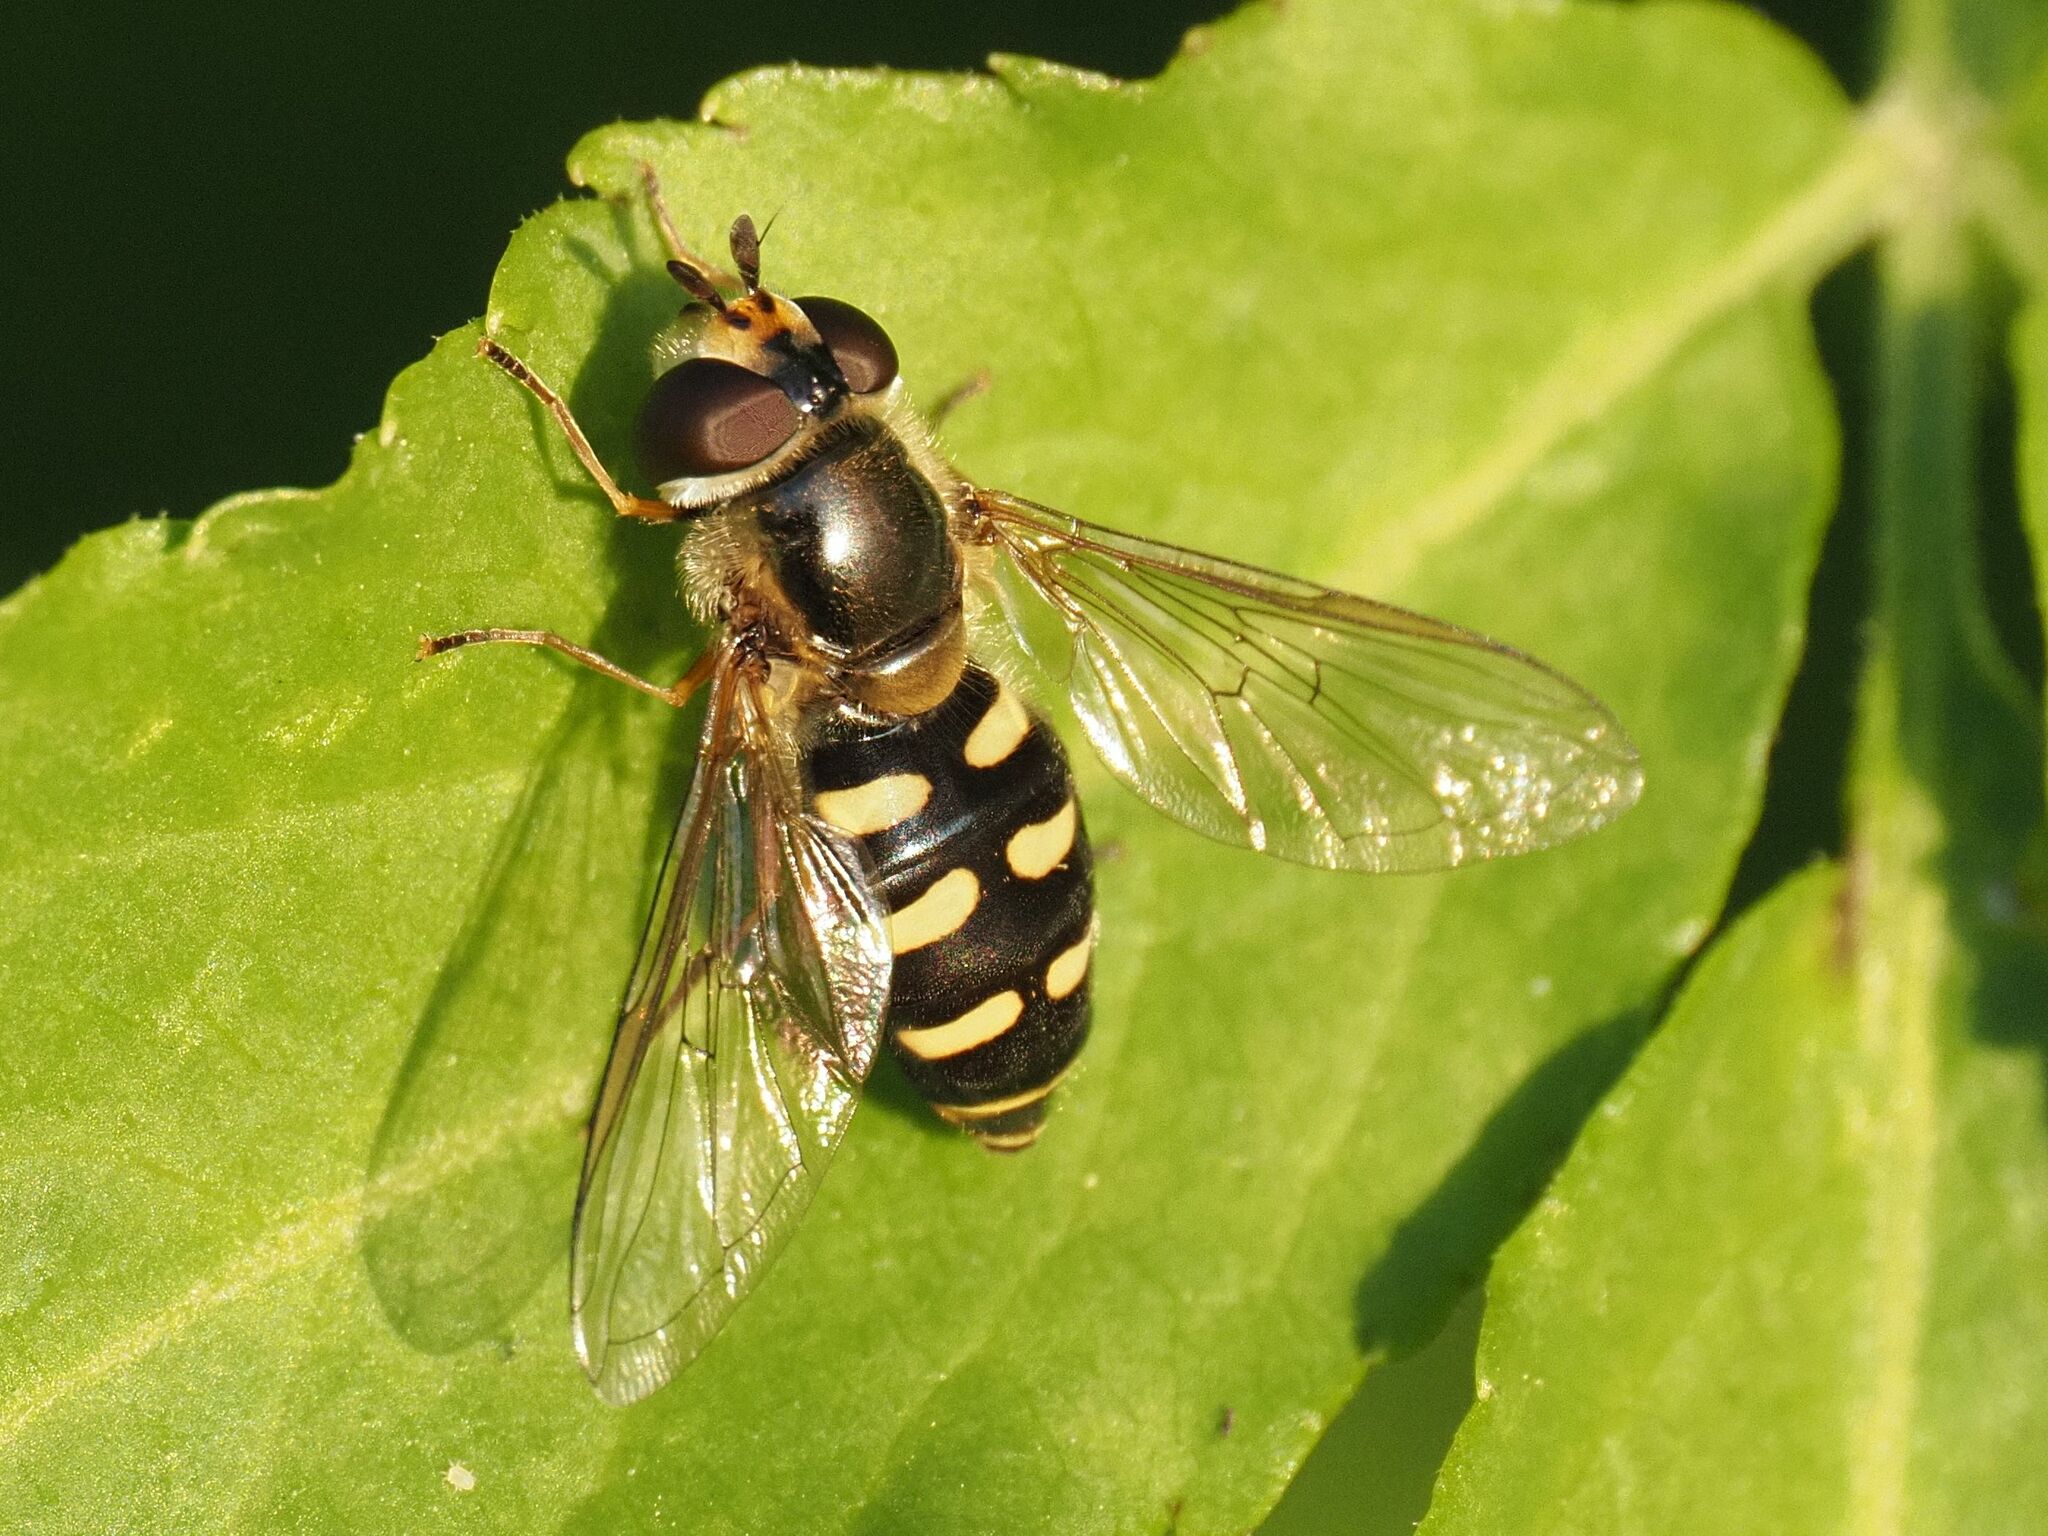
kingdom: Animalia
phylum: Arthropoda
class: Insecta
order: Diptera
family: Syrphidae
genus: Eupeodes
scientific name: Eupeodes luniger
